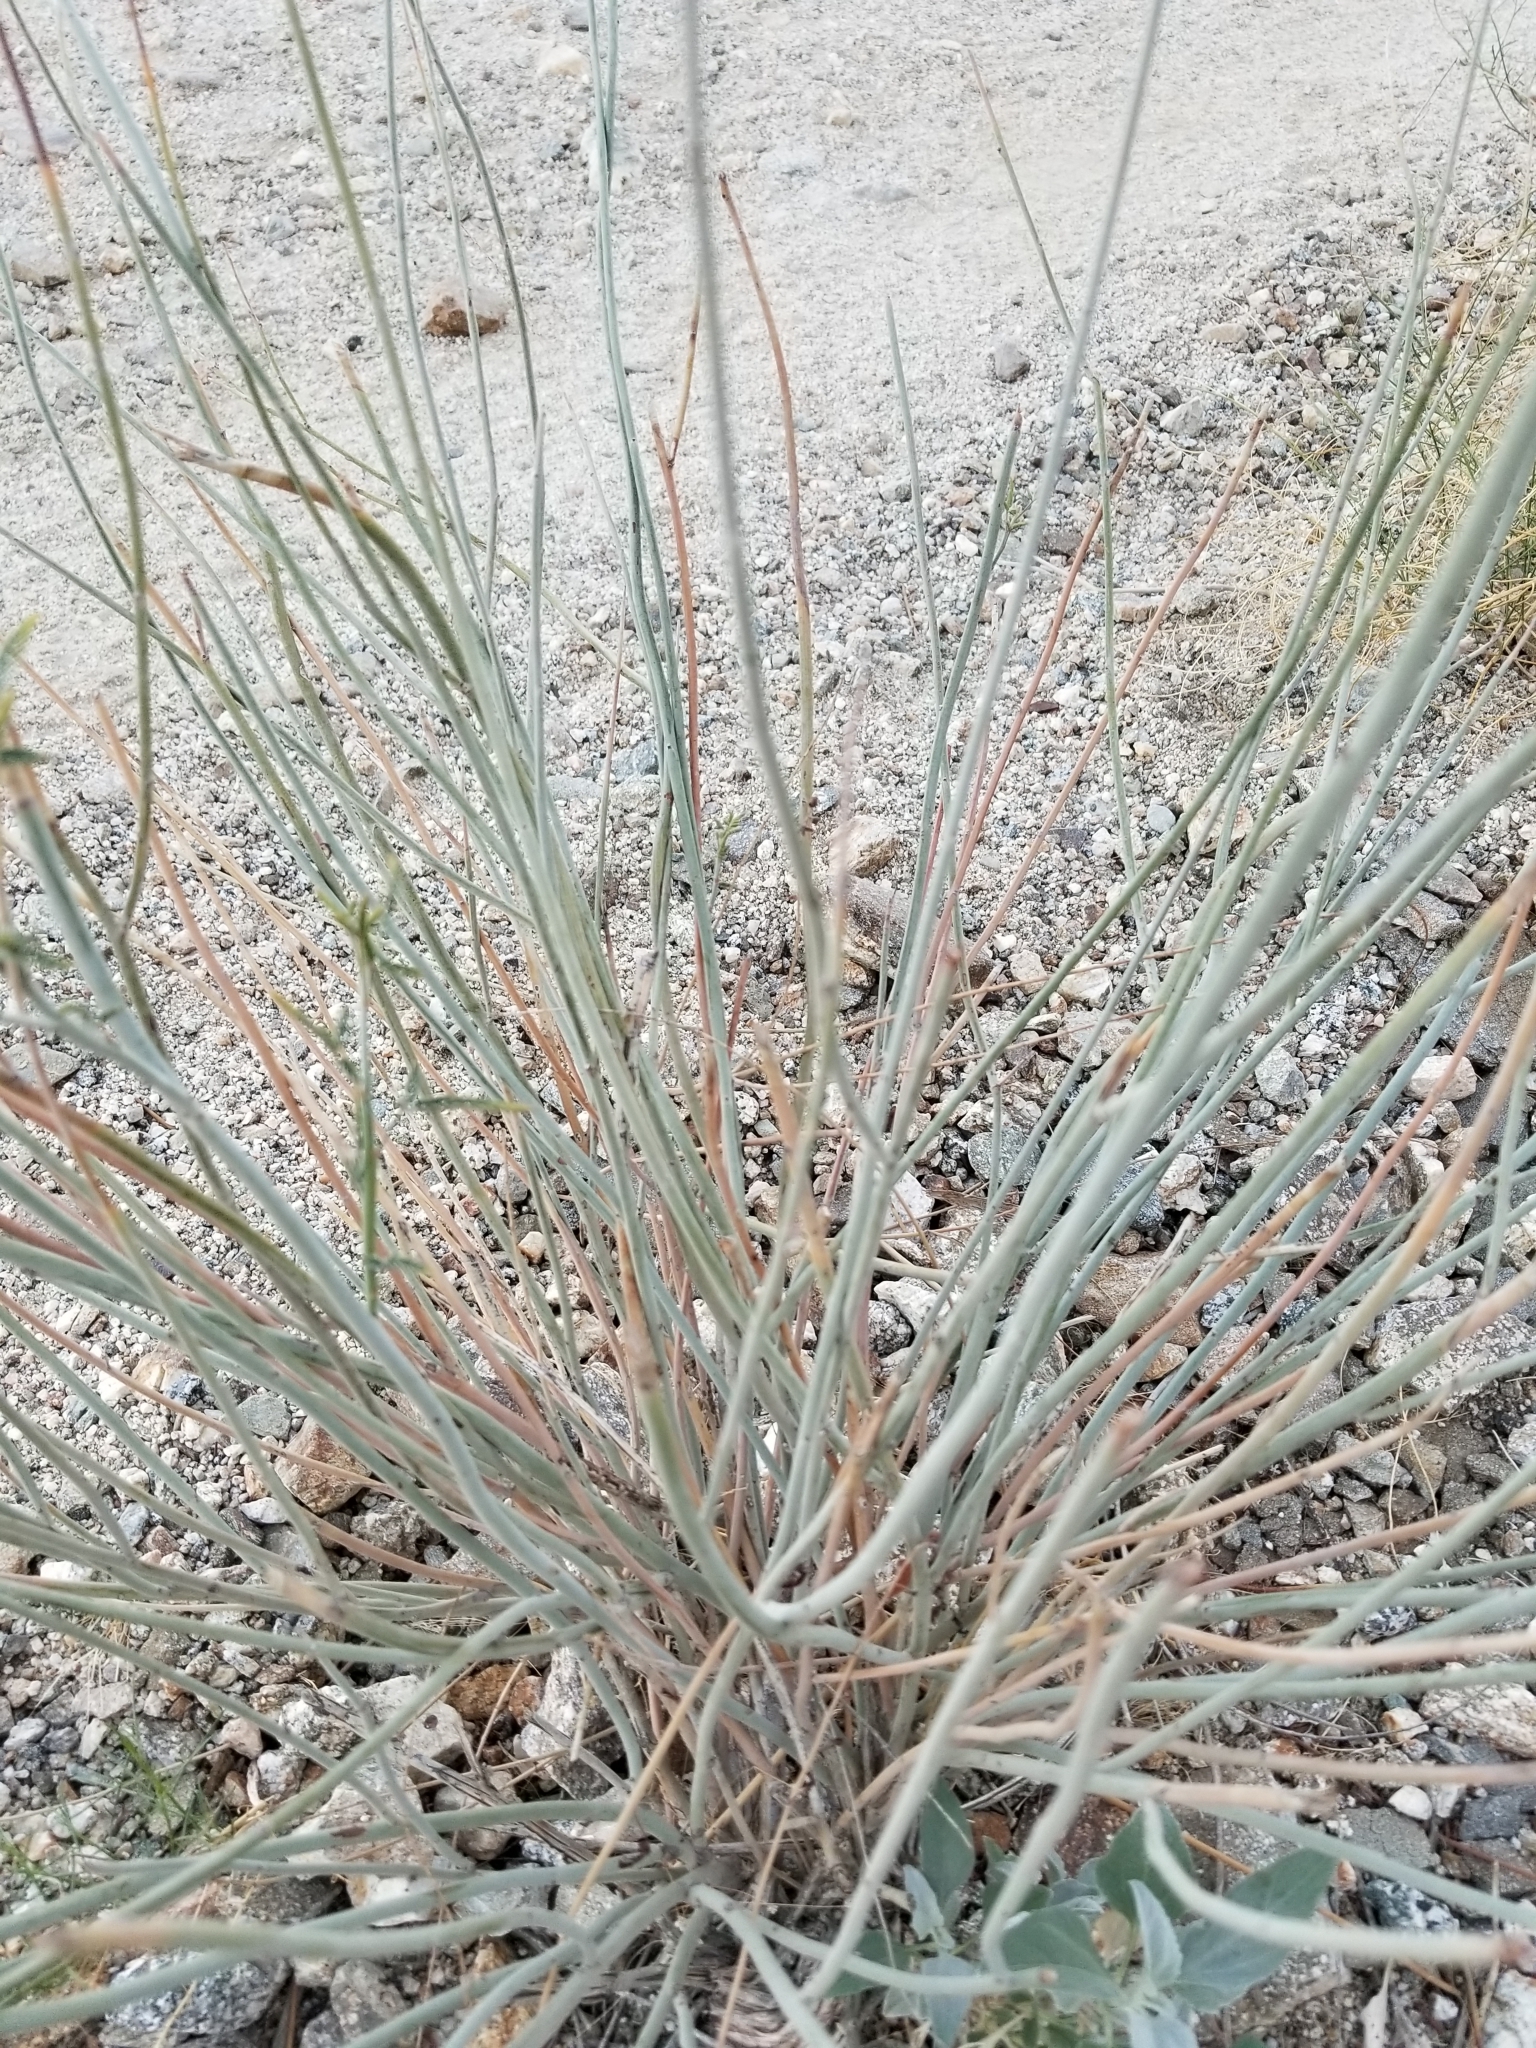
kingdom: Plantae
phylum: Tracheophyta
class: Magnoliopsida
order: Fabales
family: Fabaceae
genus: Hoffmannseggia
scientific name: Hoffmannseggia microphylla
